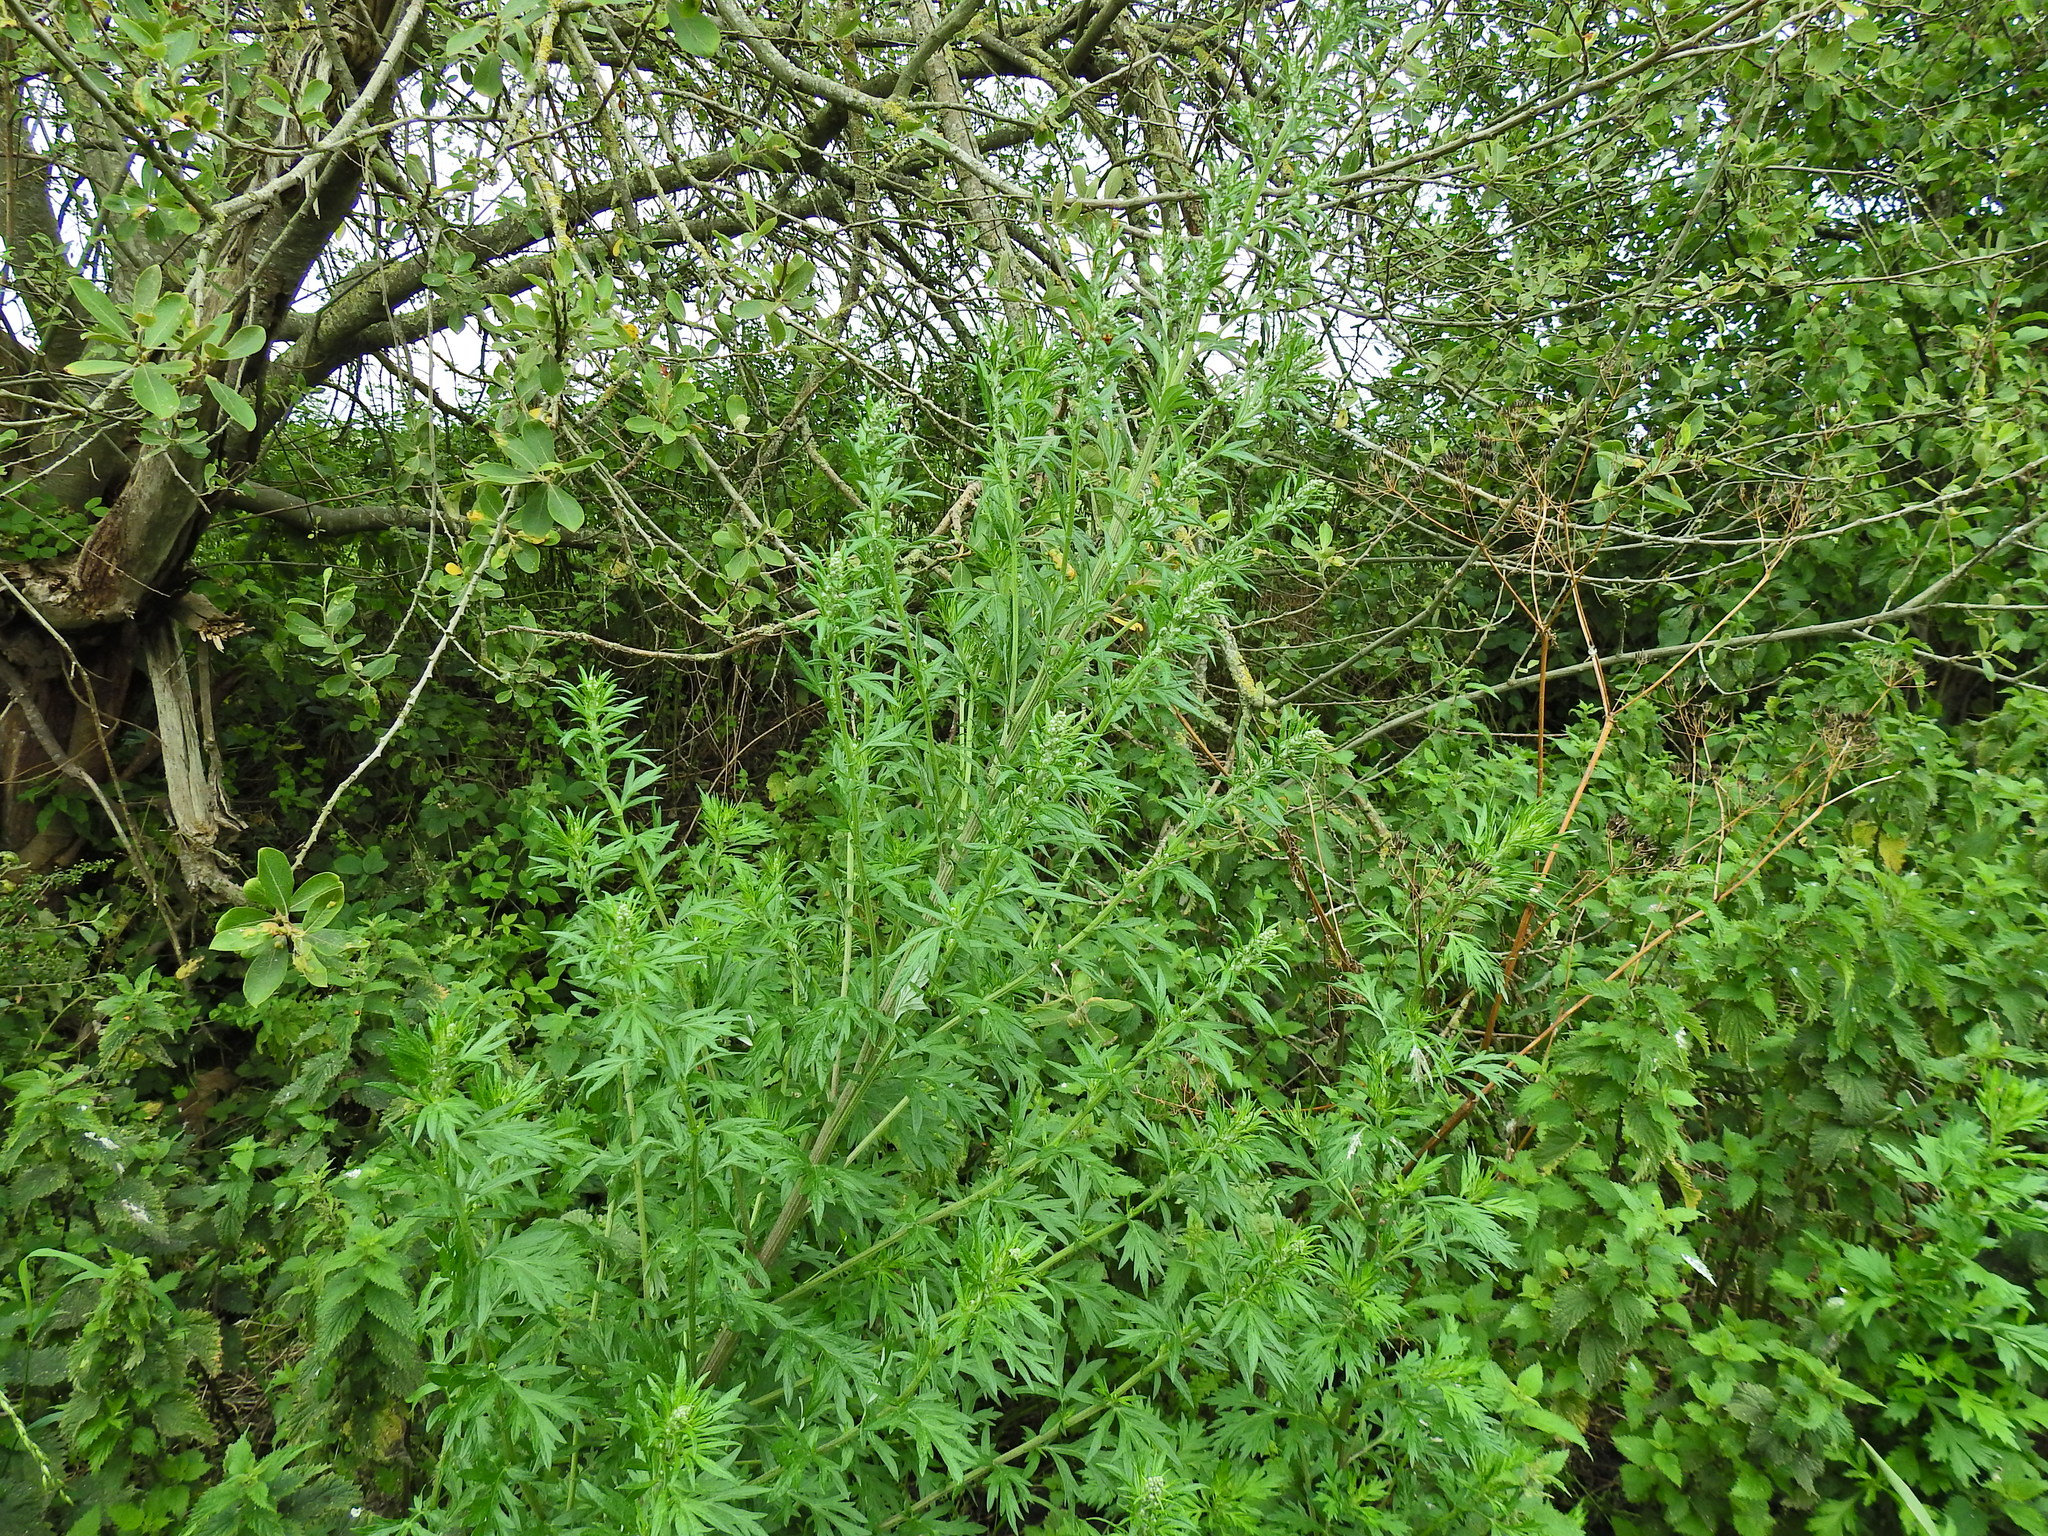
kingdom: Plantae
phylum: Tracheophyta
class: Magnoliopsida
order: Asterales
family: Asteraceae
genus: Artemisia
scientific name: Artemisia vulgaris
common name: Mugwort
